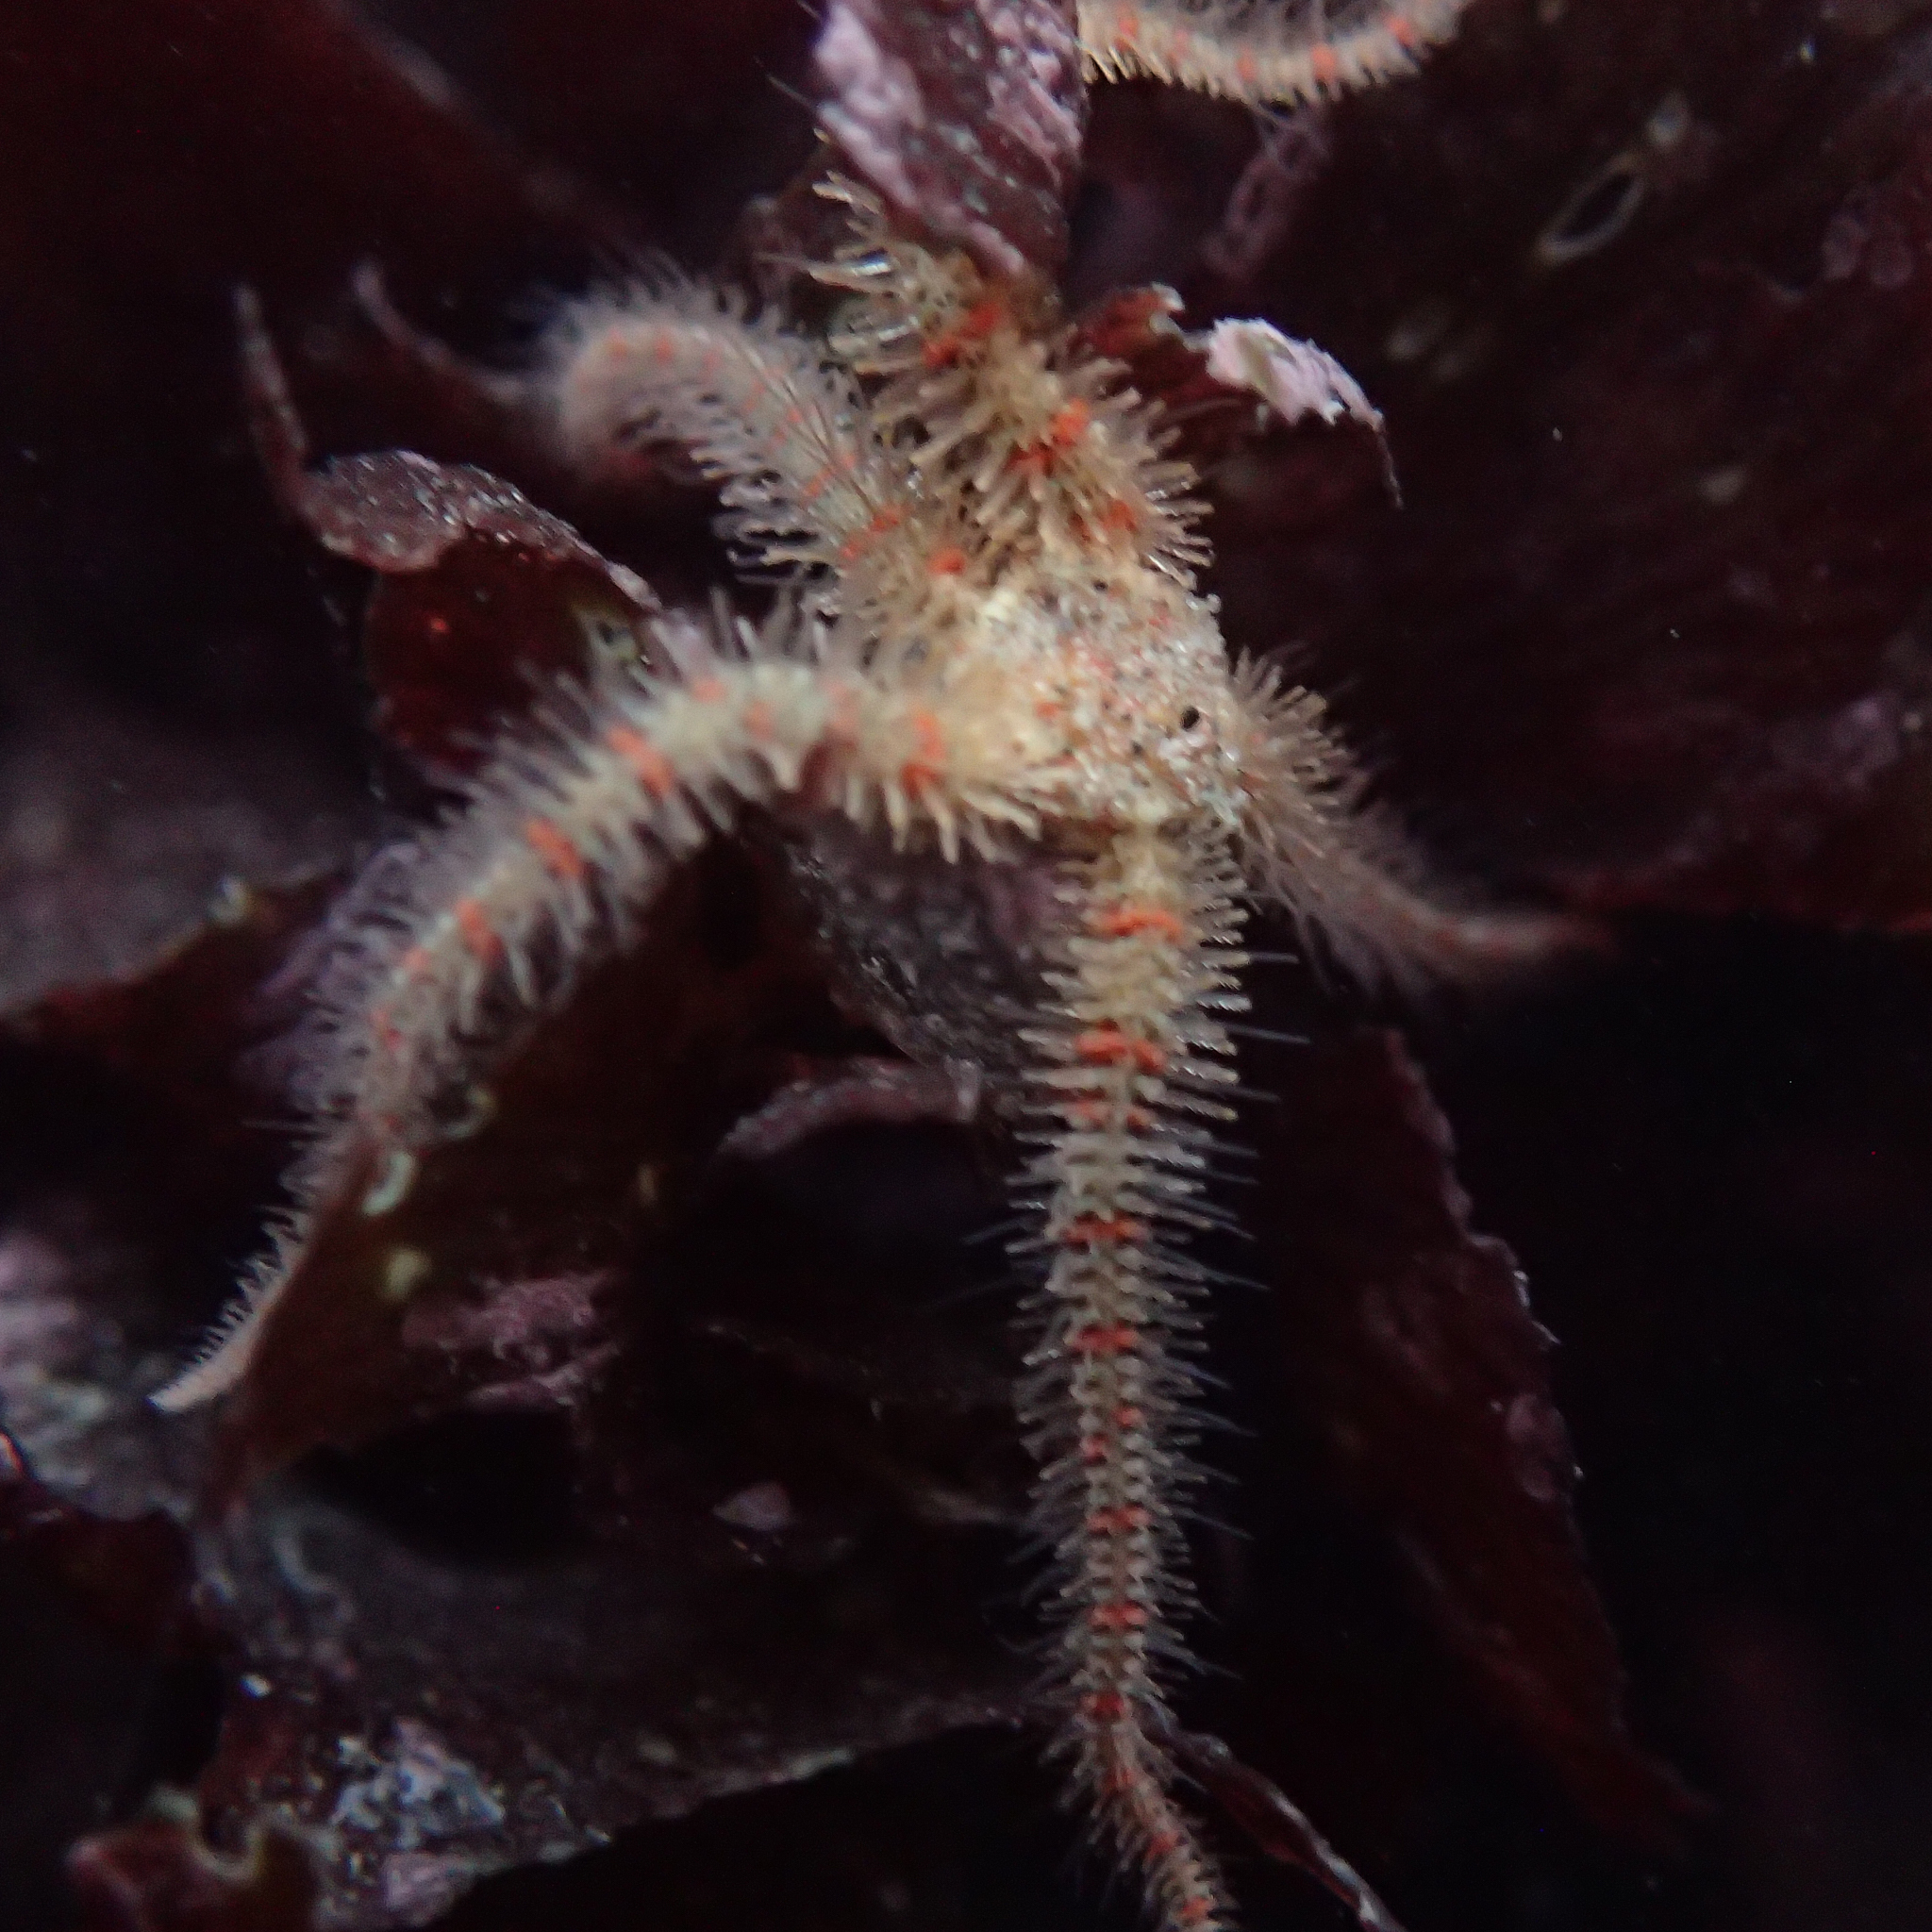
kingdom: Animalia
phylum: Echinodermata
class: Ophiuroidea
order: Amphilepidida
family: Ophiotrichidae
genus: Ophiothrix
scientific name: Ophiothrix spiculata
